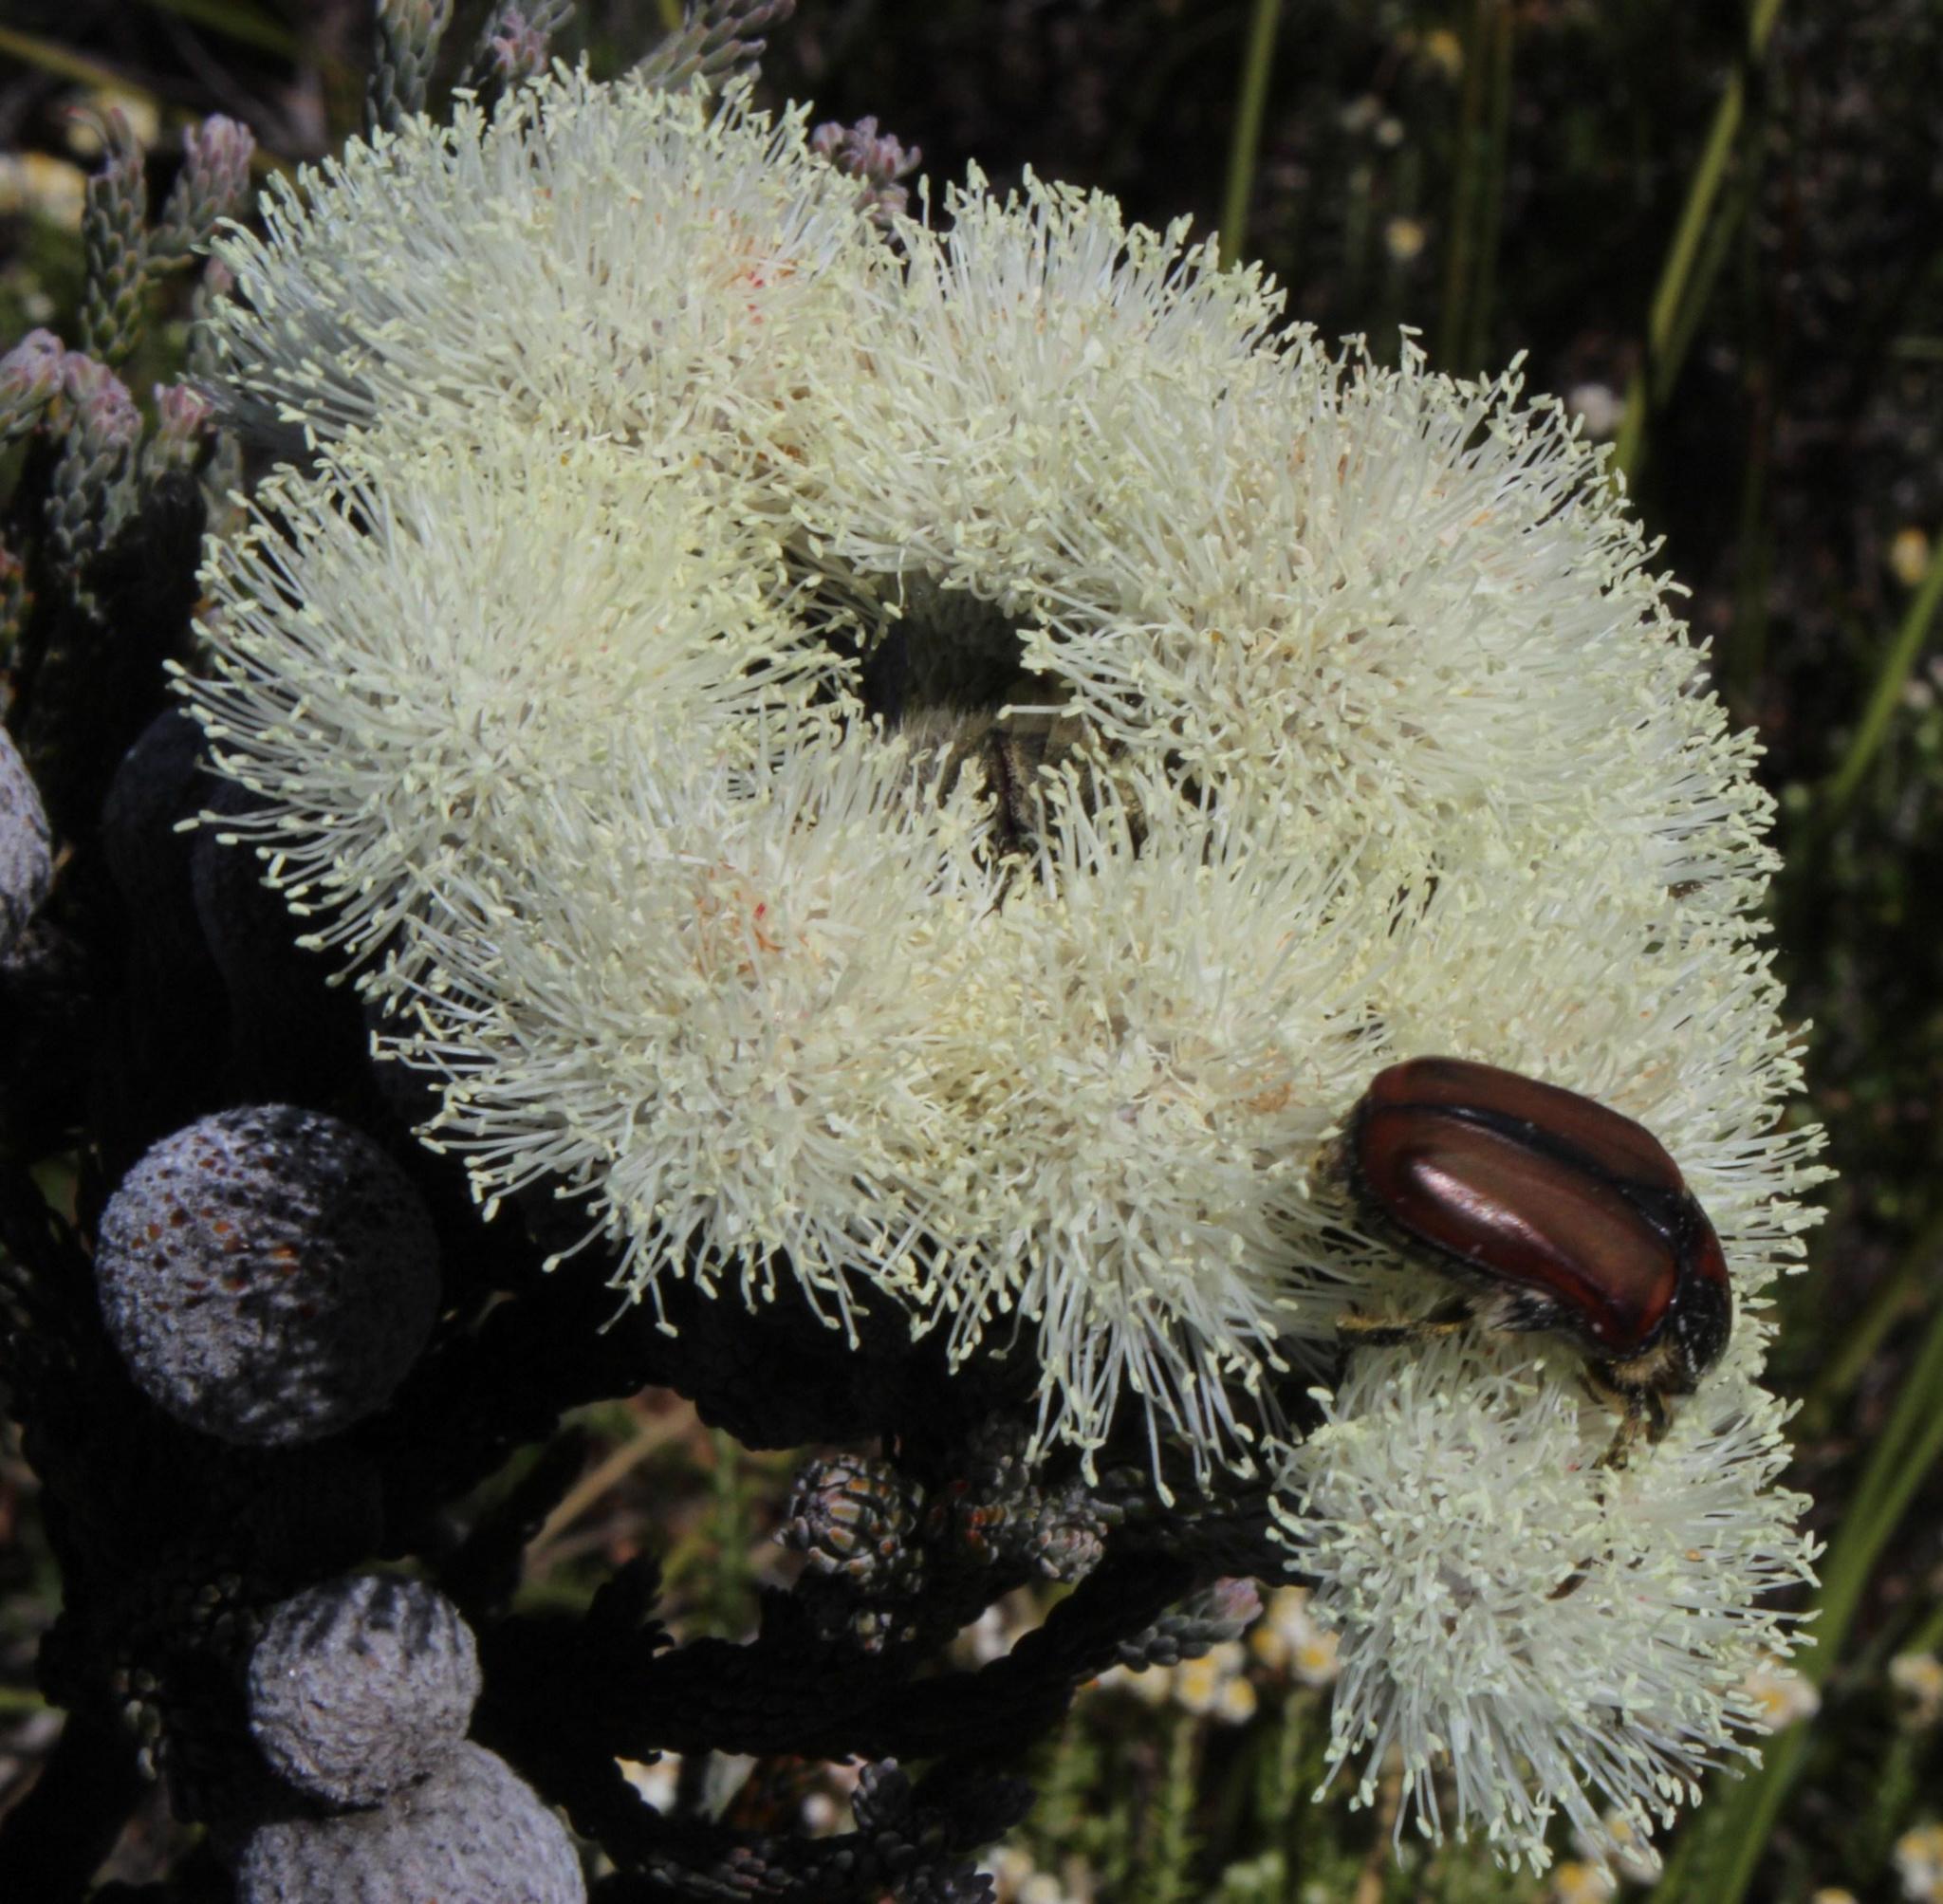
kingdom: Plantae
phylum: Tracheophyta
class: Magnoliopsida
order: Bruniales
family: Bruniaceae
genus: Brunia
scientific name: Brunia laevis
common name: Silver brunia
